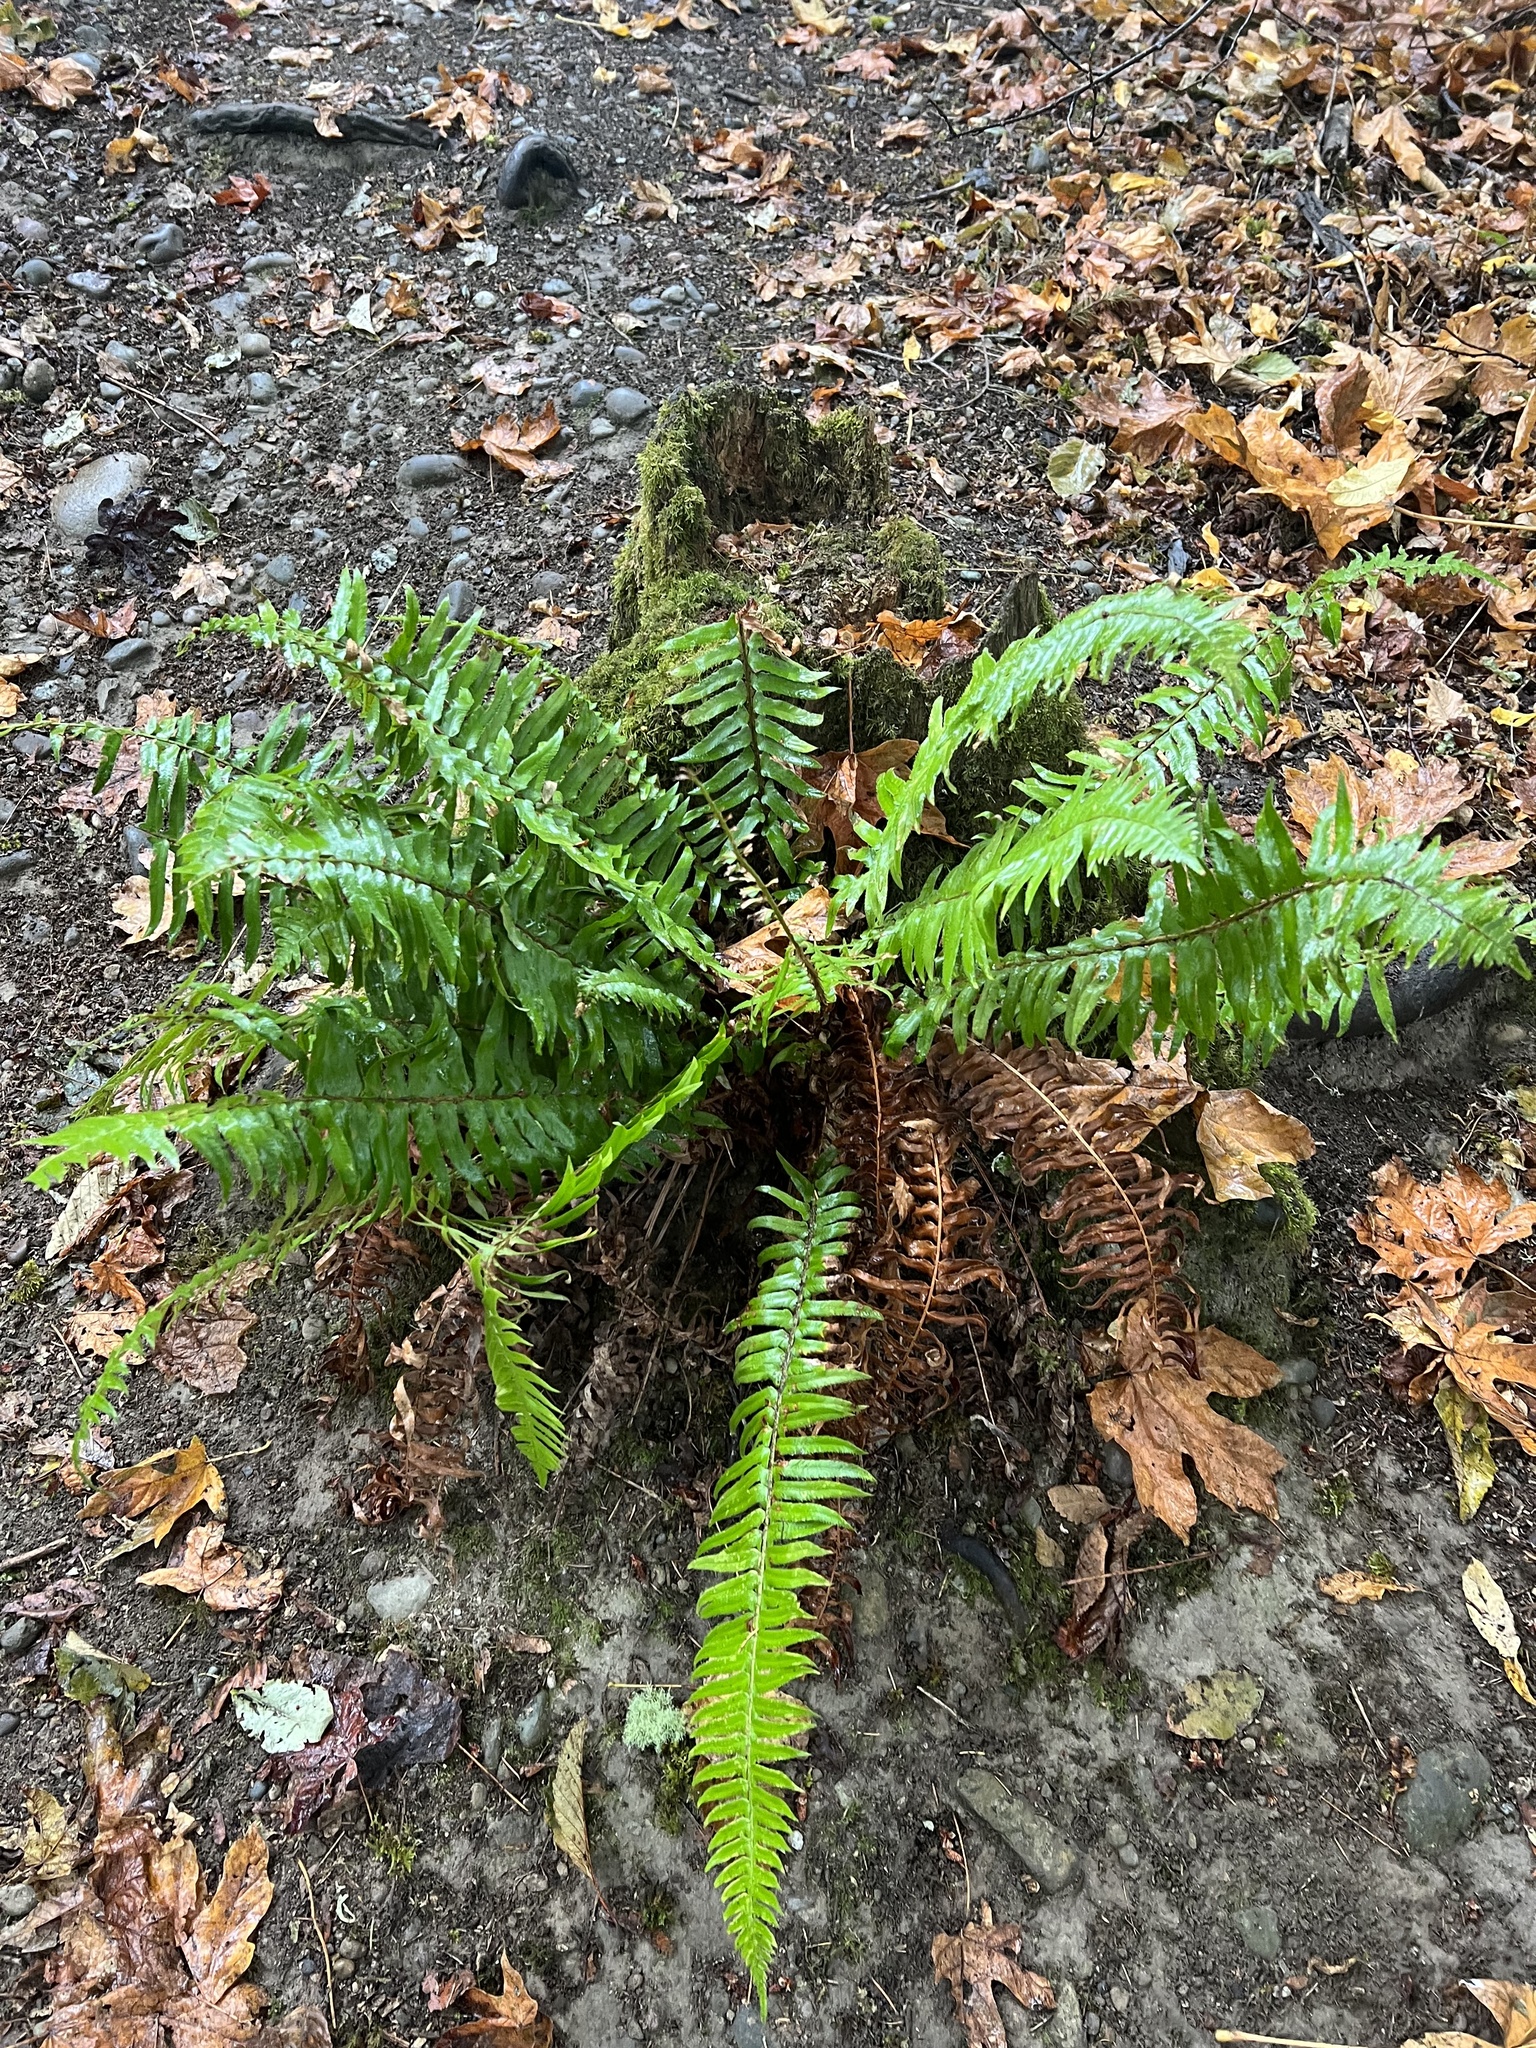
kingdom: Plantae
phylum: Tracheophyta
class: Polypodiopsida
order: Polypodiales
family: Dryopteridaceae
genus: Polystichum
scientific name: Polystichum munitum
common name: Western sword-fern
